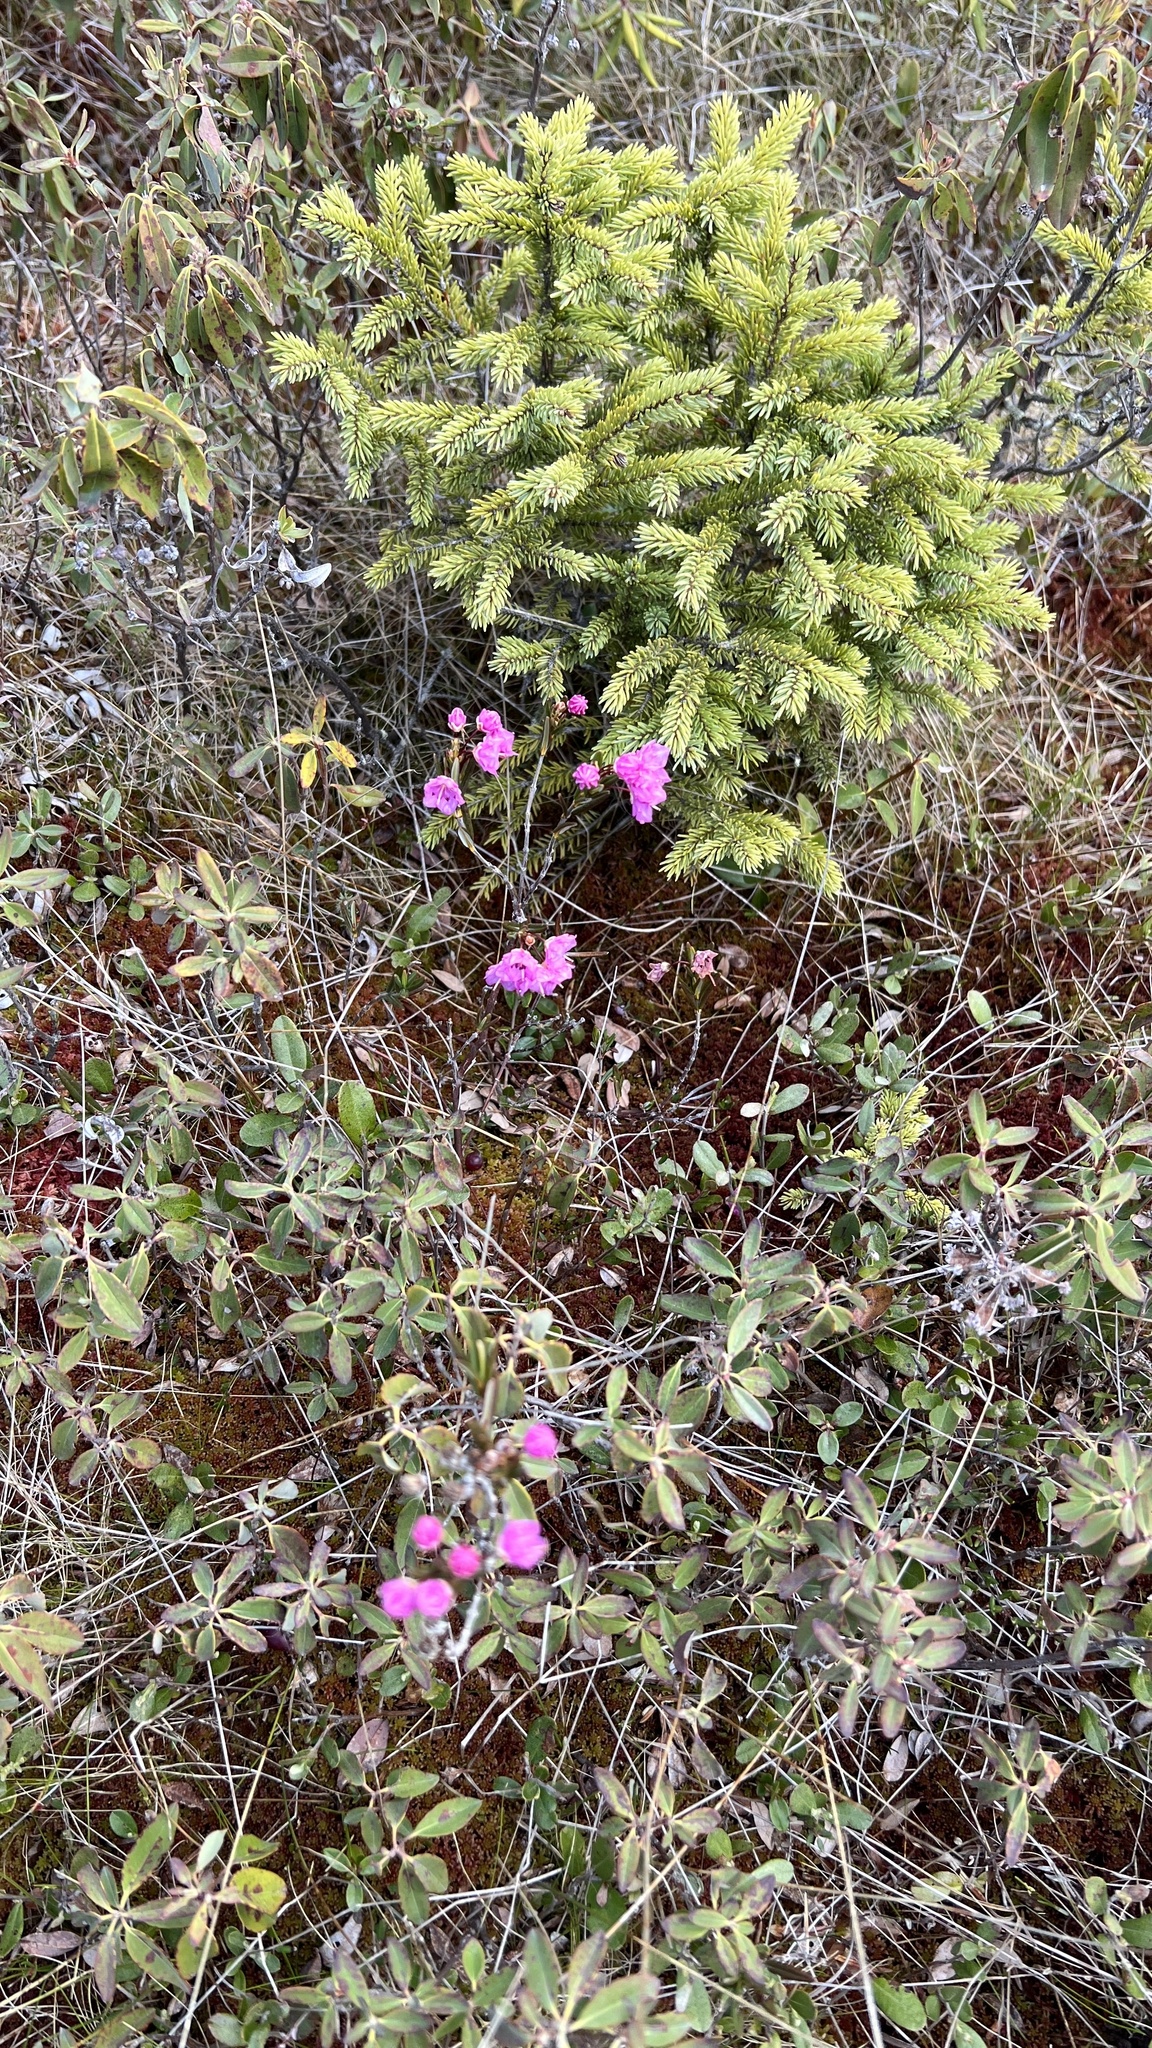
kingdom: Plantae
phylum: Tracheophyta
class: Magnoliopsida
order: Ericales
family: Ericaceae
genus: Kalmia
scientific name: Kalmia polifolia
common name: Bog-laurel
